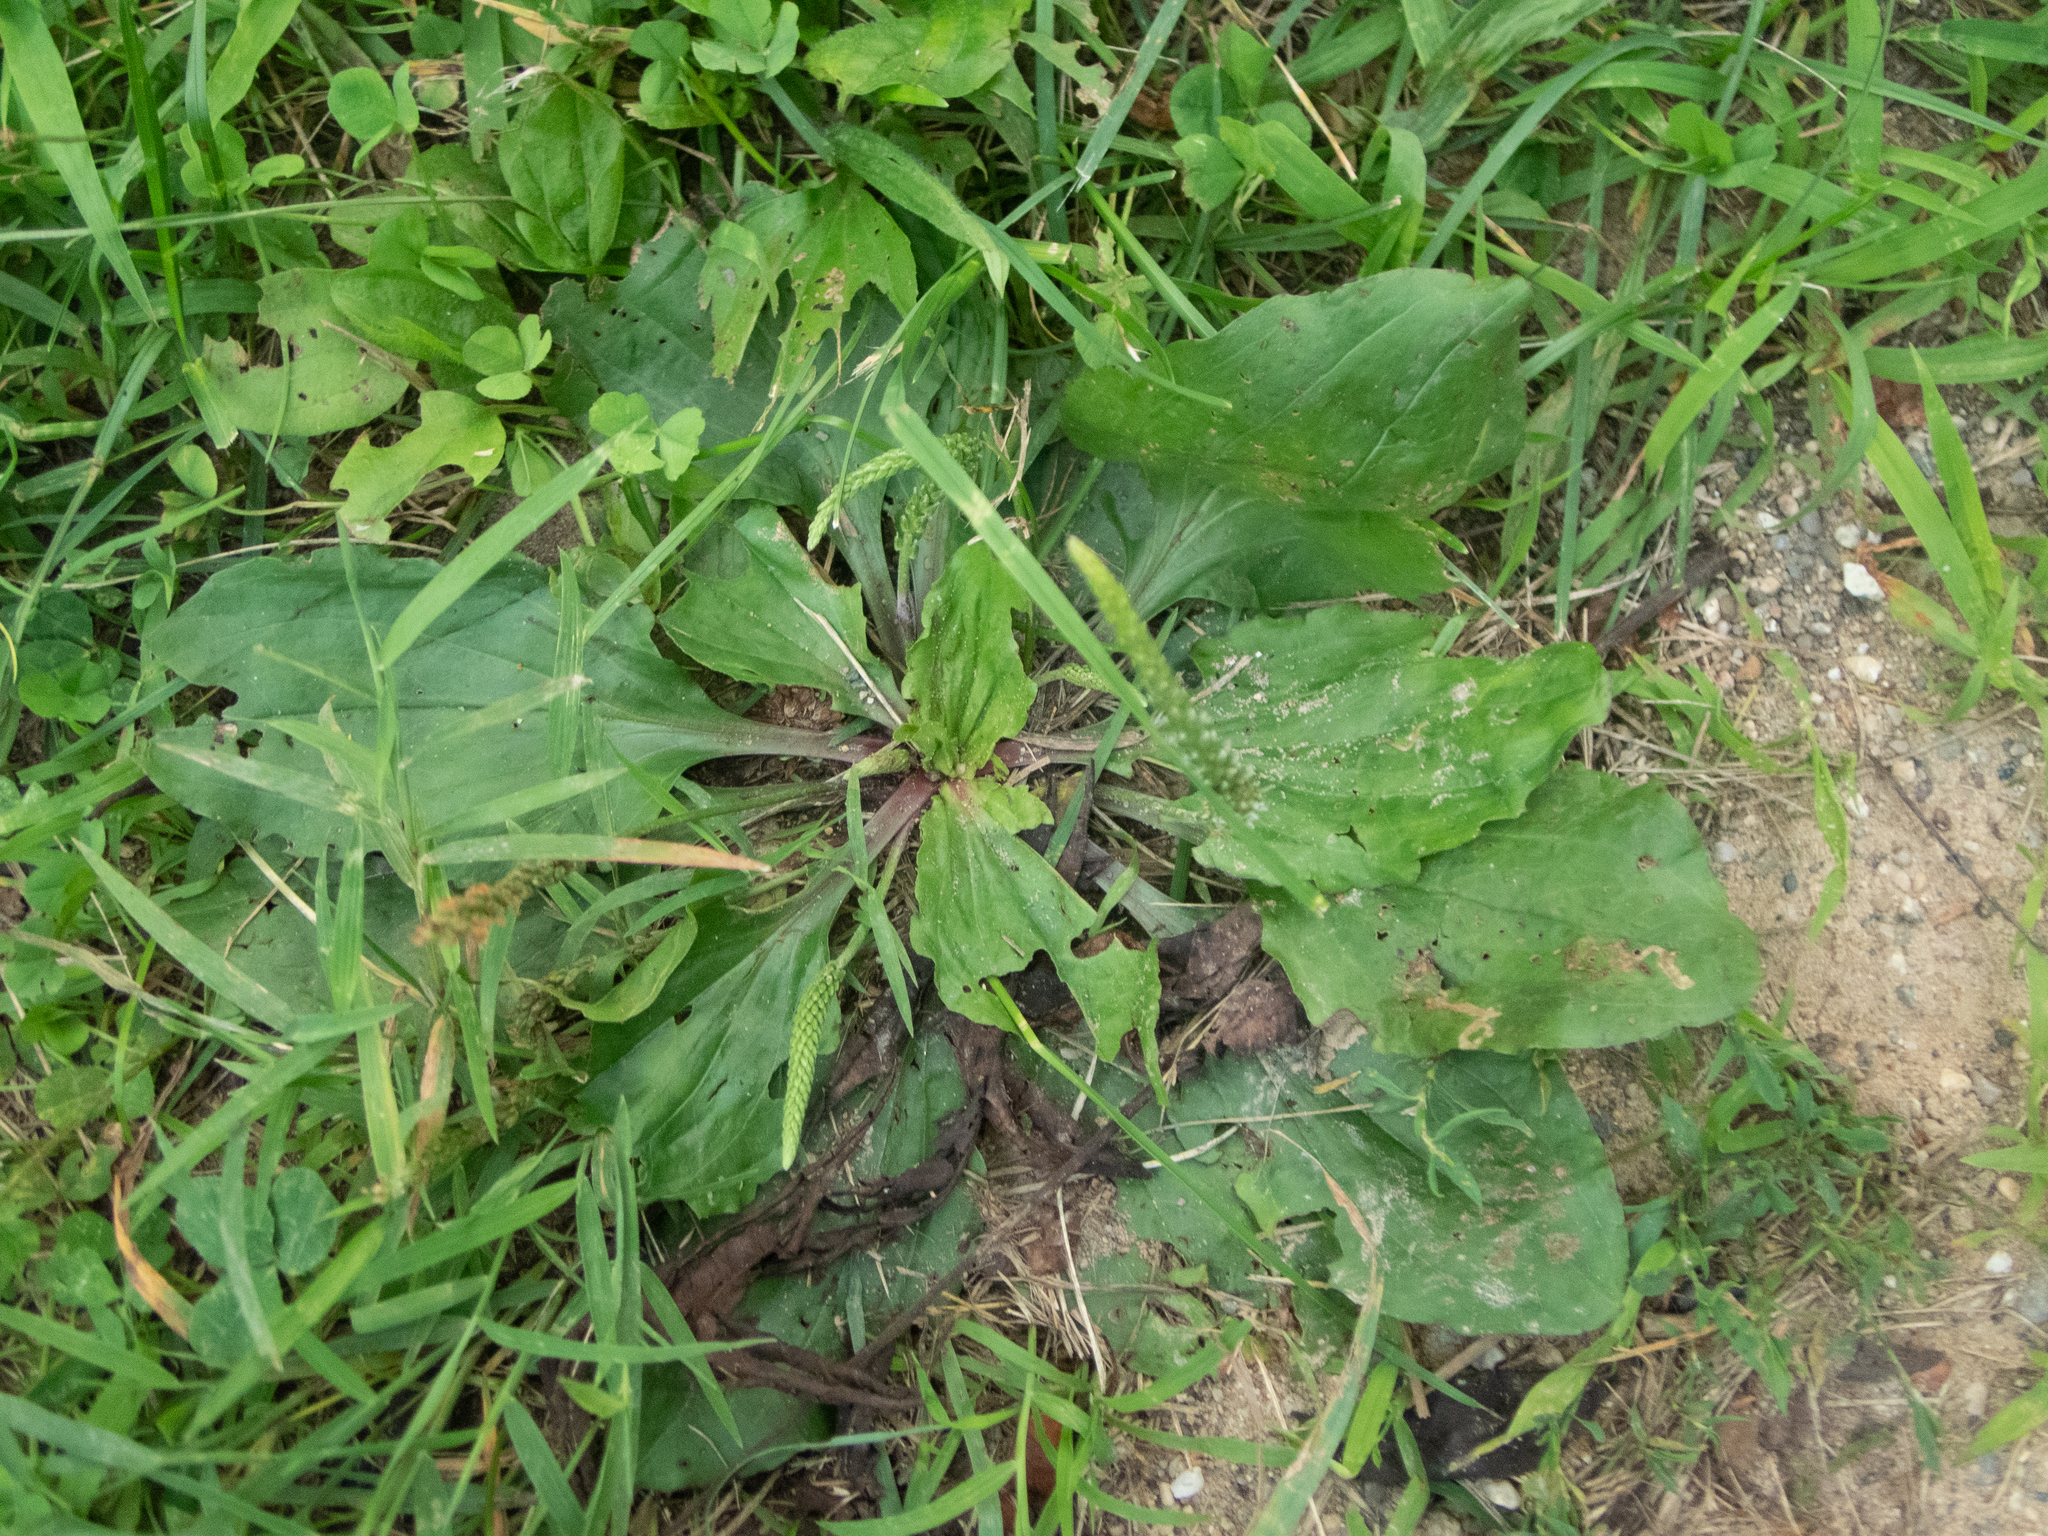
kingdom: Plantae
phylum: Tracheophyta
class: Magnoliopsida
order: Lamiales
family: Plantaginaceae
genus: Plantago
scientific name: Plantago rugelii
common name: American plantain
